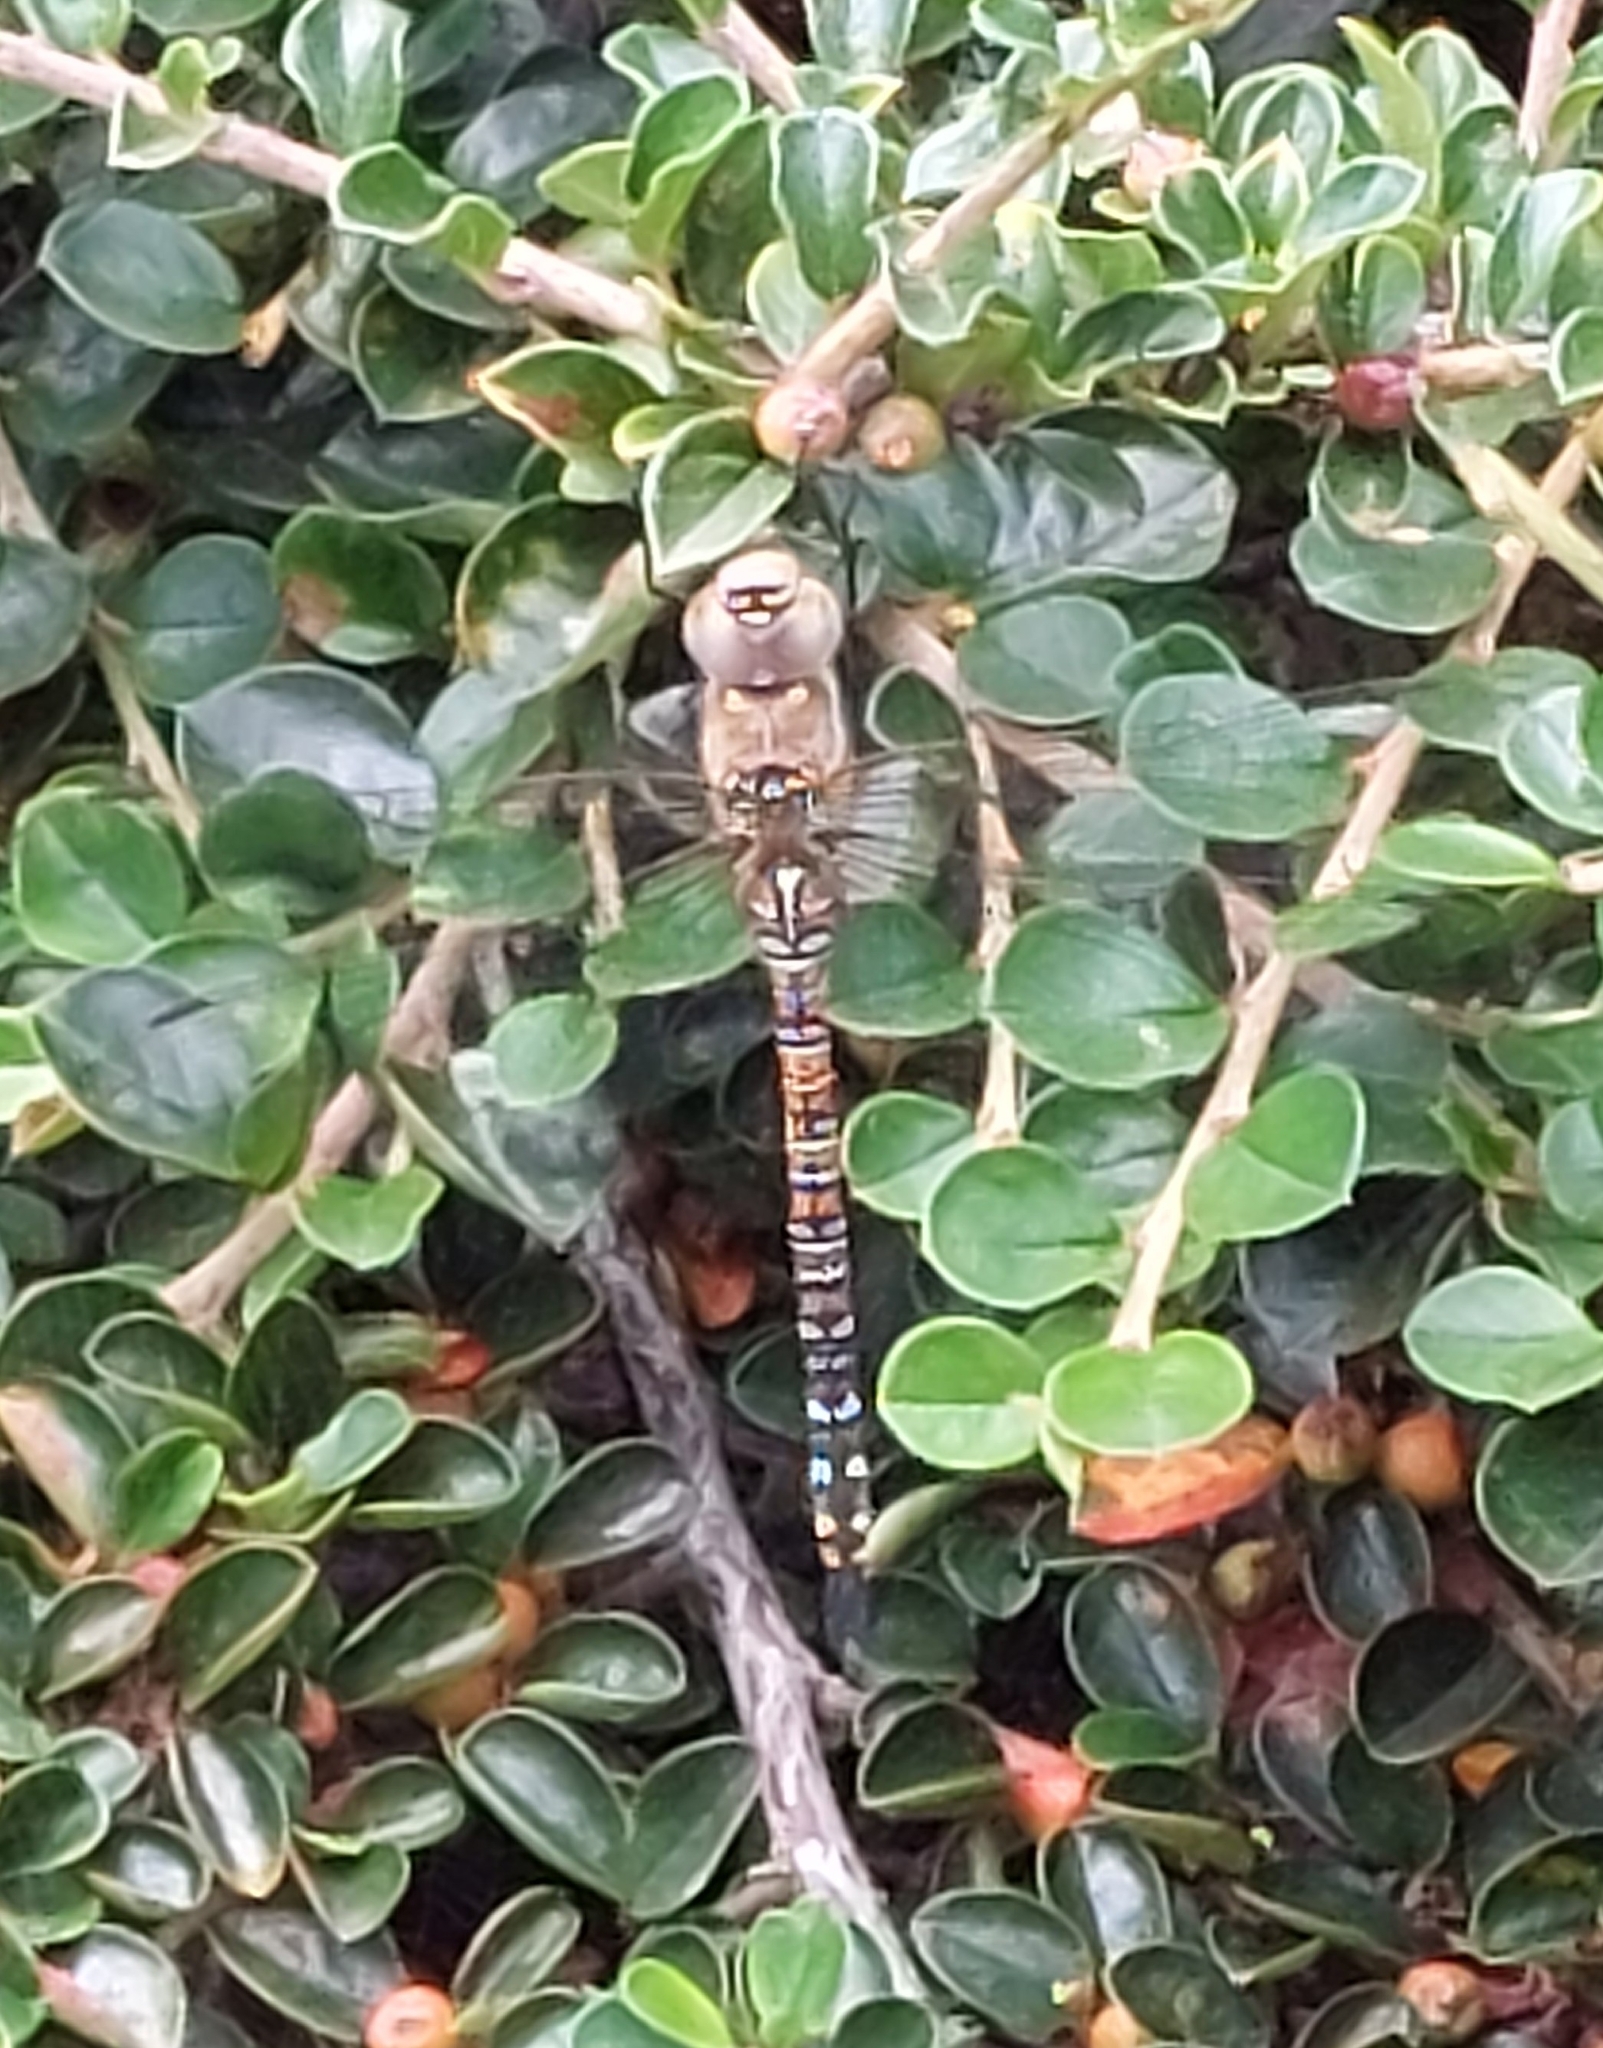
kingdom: Animalia
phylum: Arthropoda
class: Insecta
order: Odonata
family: Aeshnidae
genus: Aeshna
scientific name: Aeshna mixta
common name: Migrant hawker
